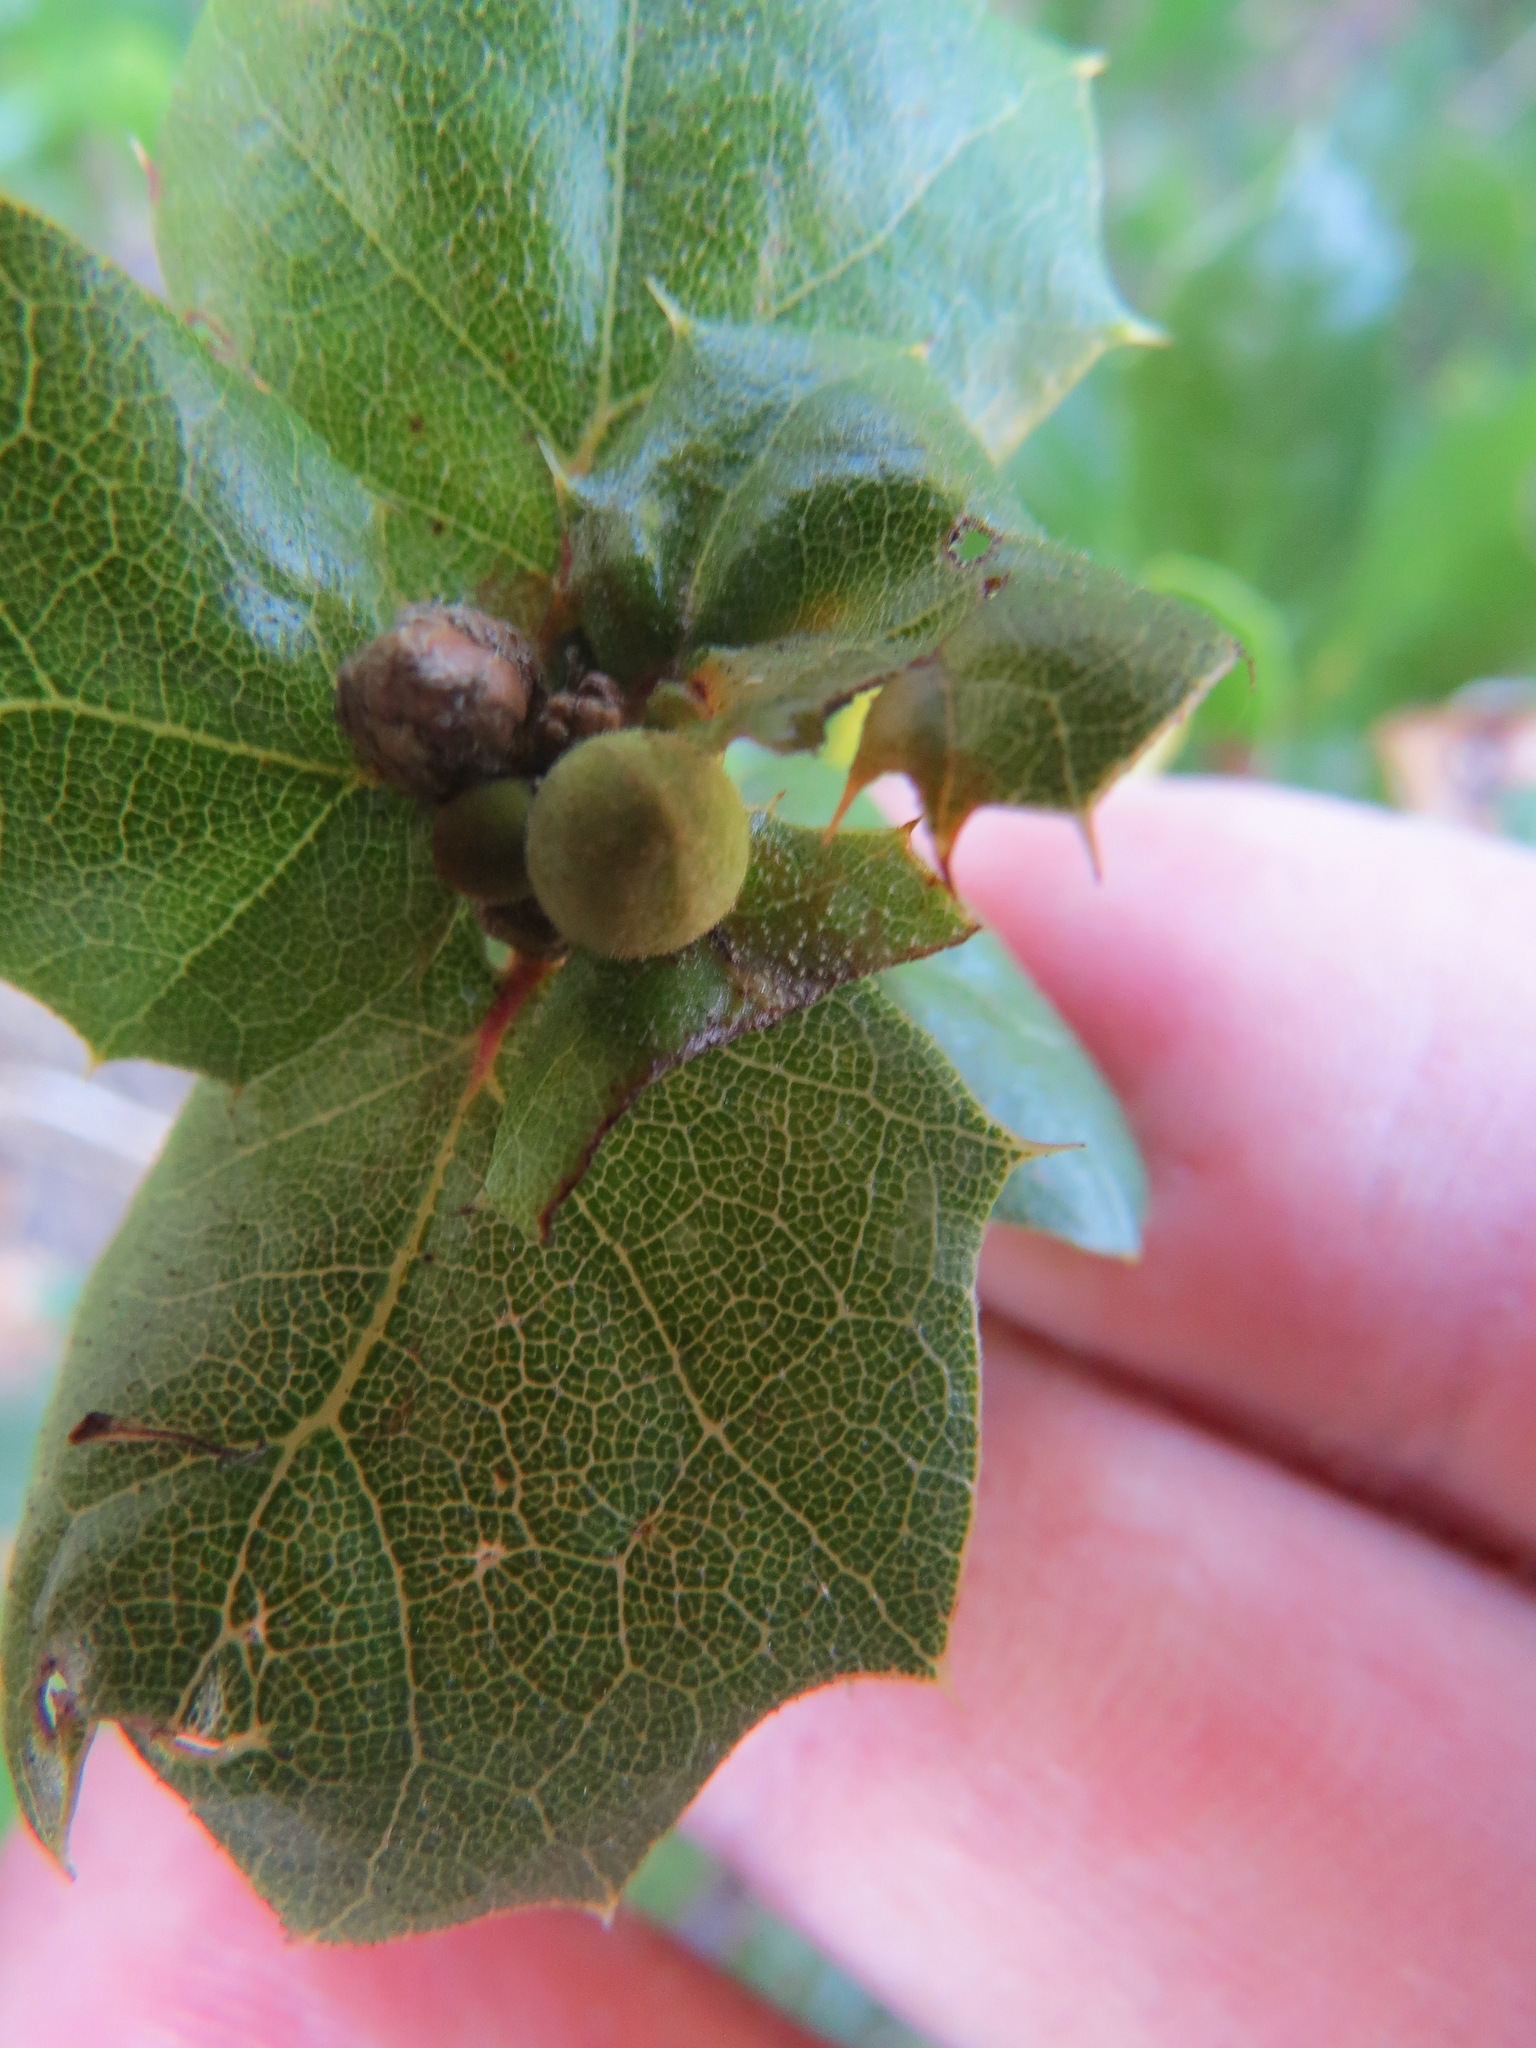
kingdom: Animalia
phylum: Arthropoda
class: Insecta
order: Hymenoptera
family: Cynipidae
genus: Callirhytis
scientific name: Callirhytis
